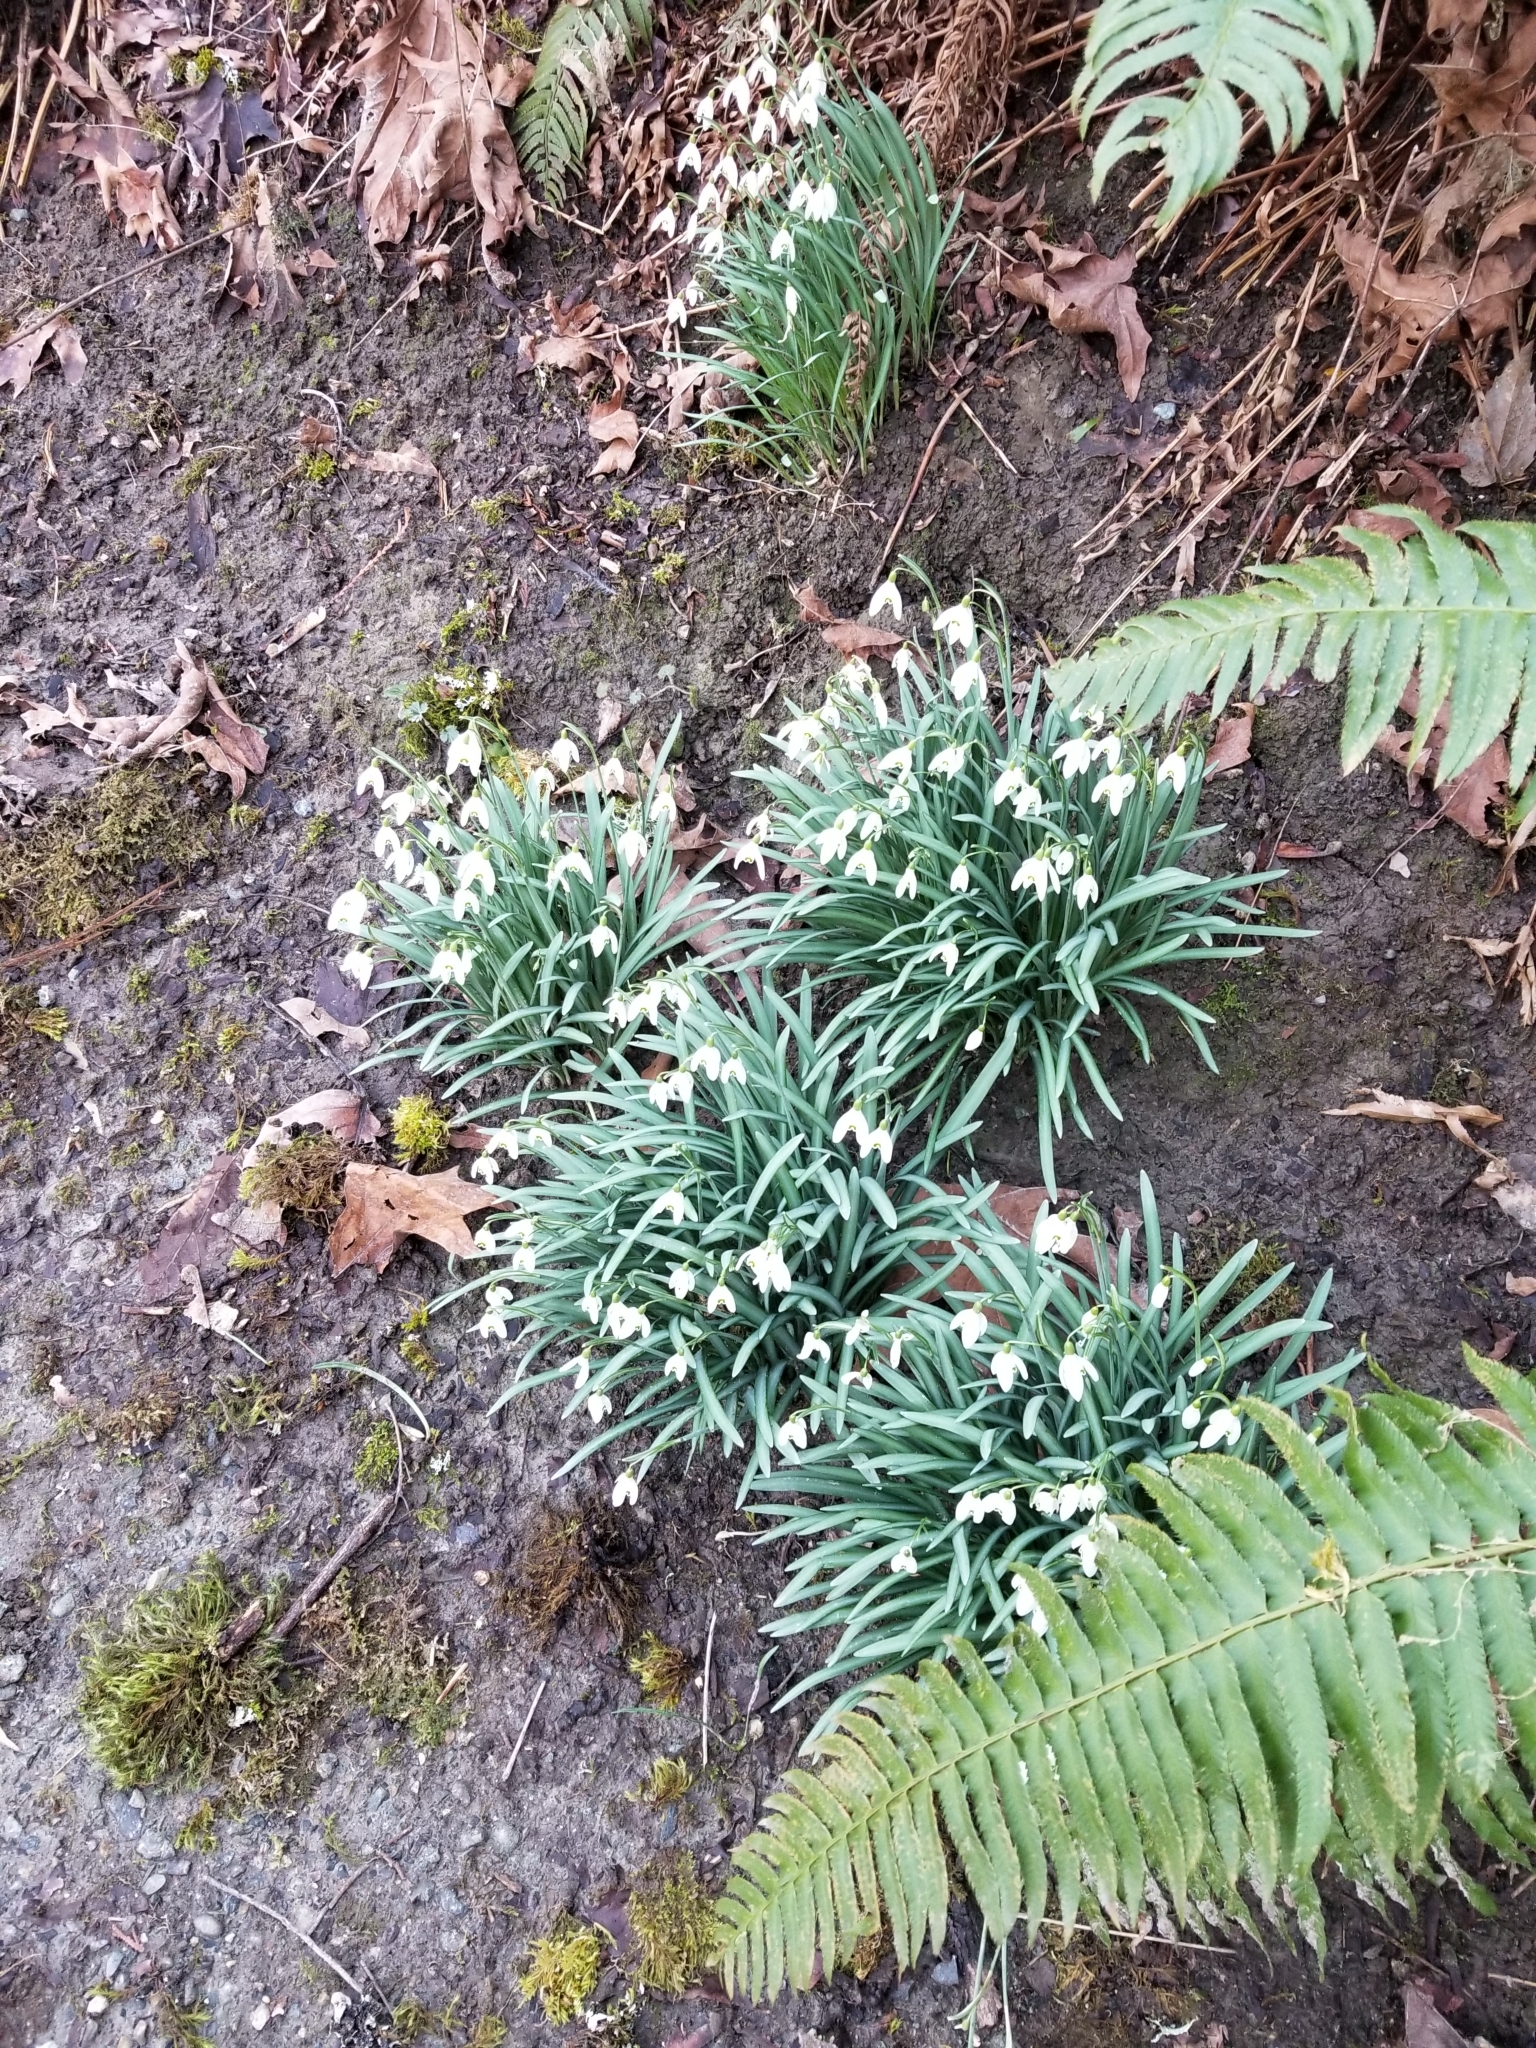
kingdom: Plantae
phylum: Tracheophyta
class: Liliopsida
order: Asparagales
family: Amaryllidaceae
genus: Galanthus
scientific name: Galanthus nivalis
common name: Snowdrop
